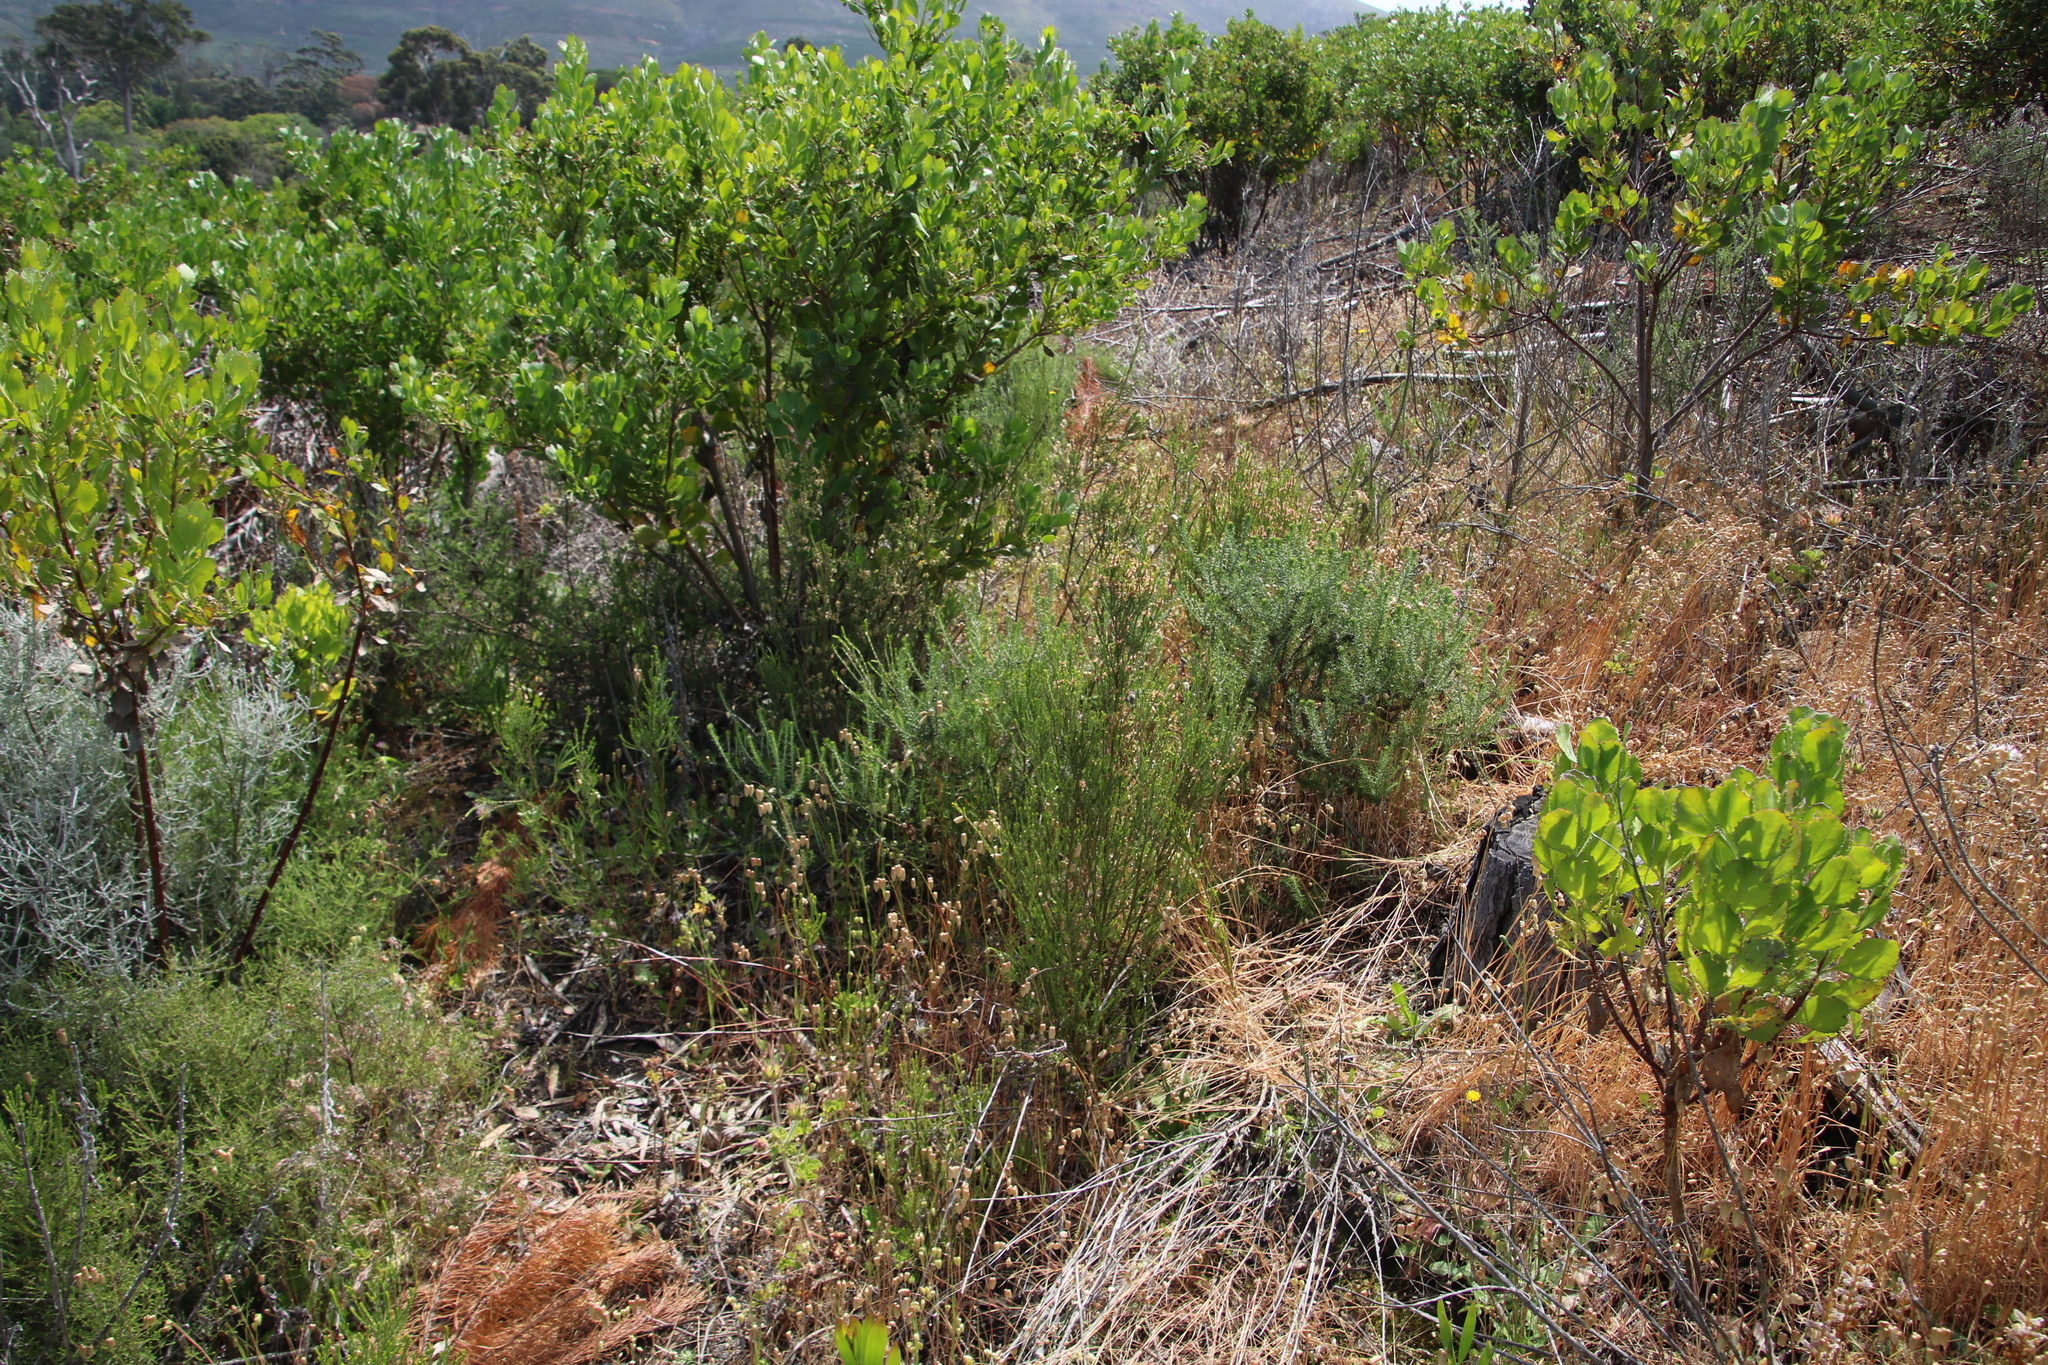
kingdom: Plantae
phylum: Tracheophyta
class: Magnoliopsida
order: Malvales
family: Thymelaeaceae
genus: Passerina
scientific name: Passerina corymbosa
